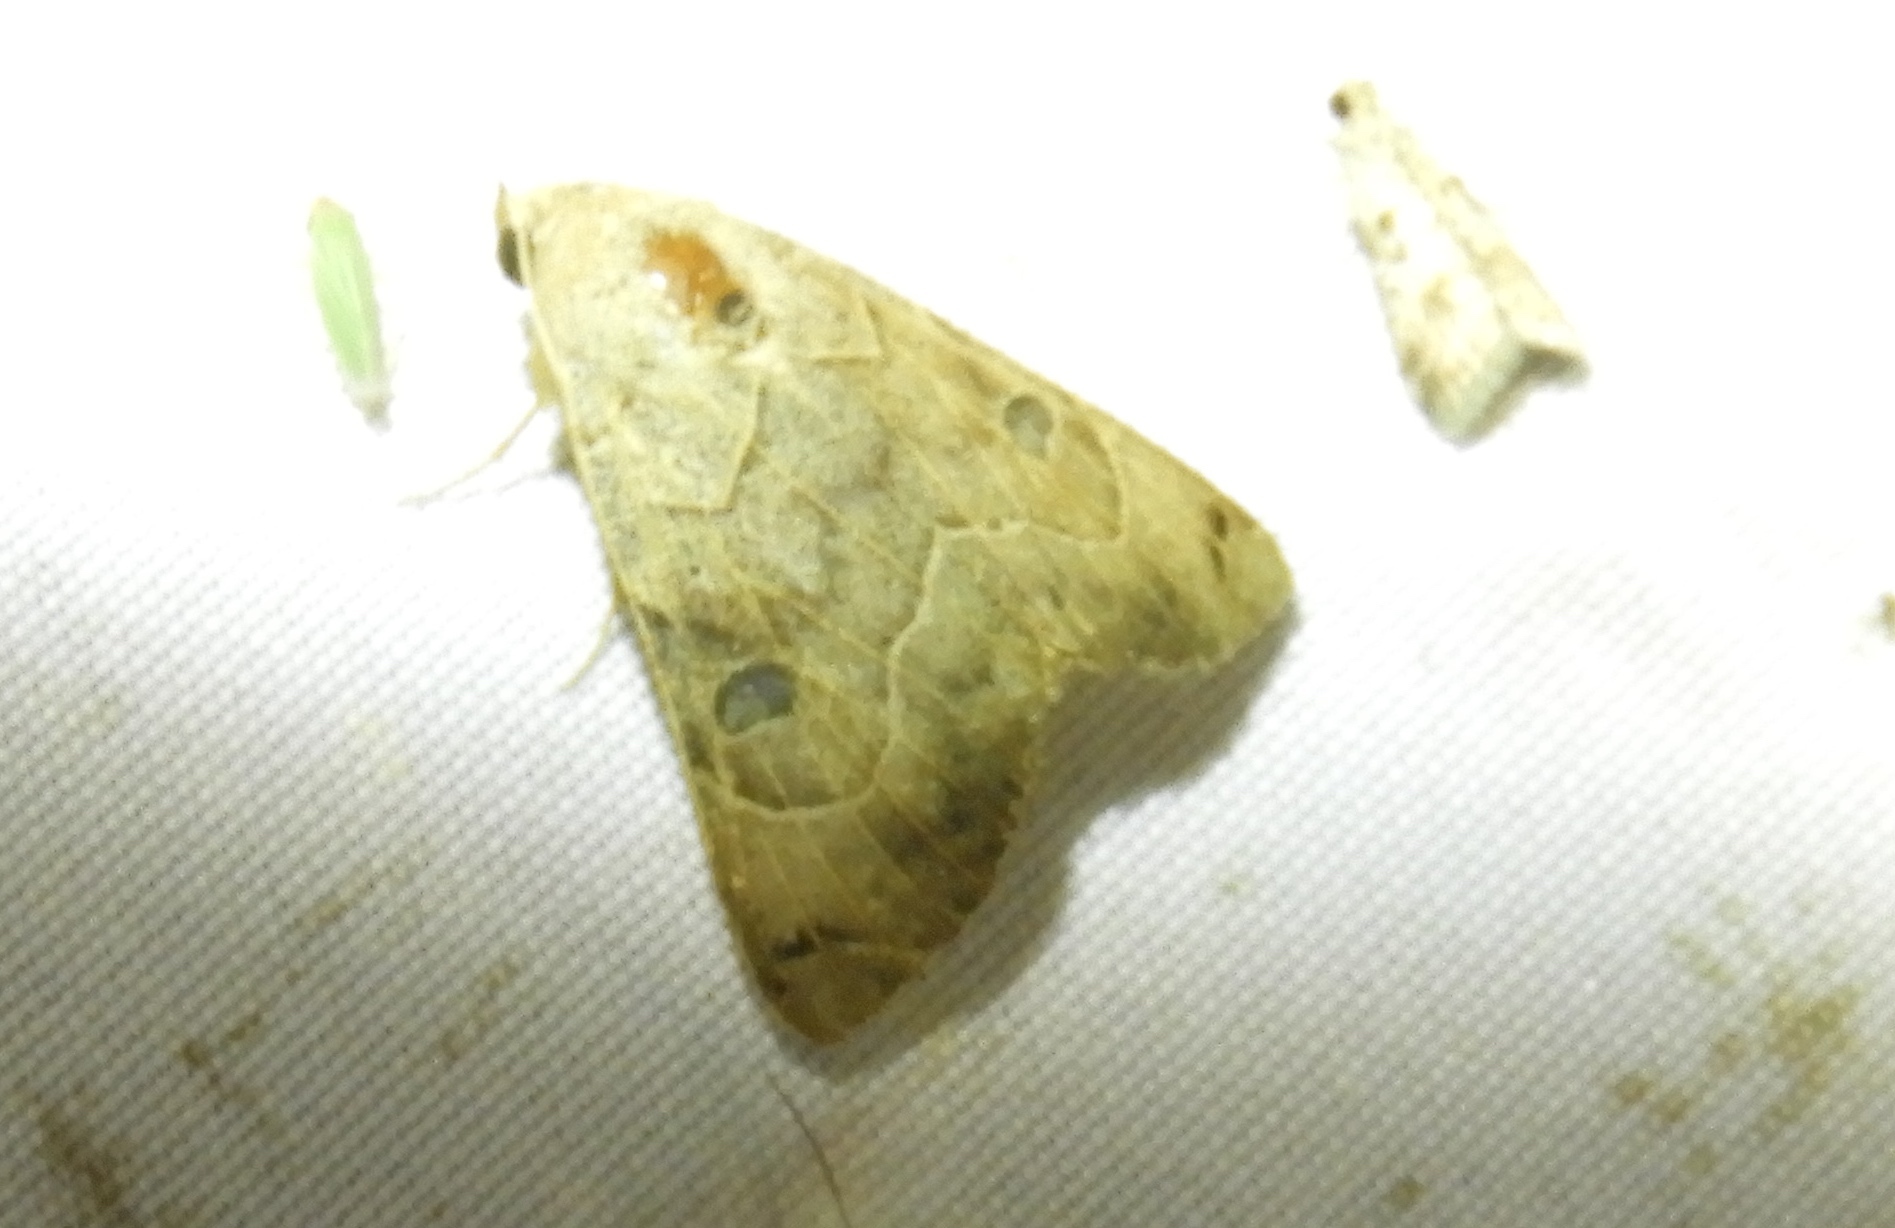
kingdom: Animalia
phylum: Arthropoda
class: Insecta
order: Lepidoptera
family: Erebidae
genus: Isogona
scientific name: Isogona scindens
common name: Owlet moth
